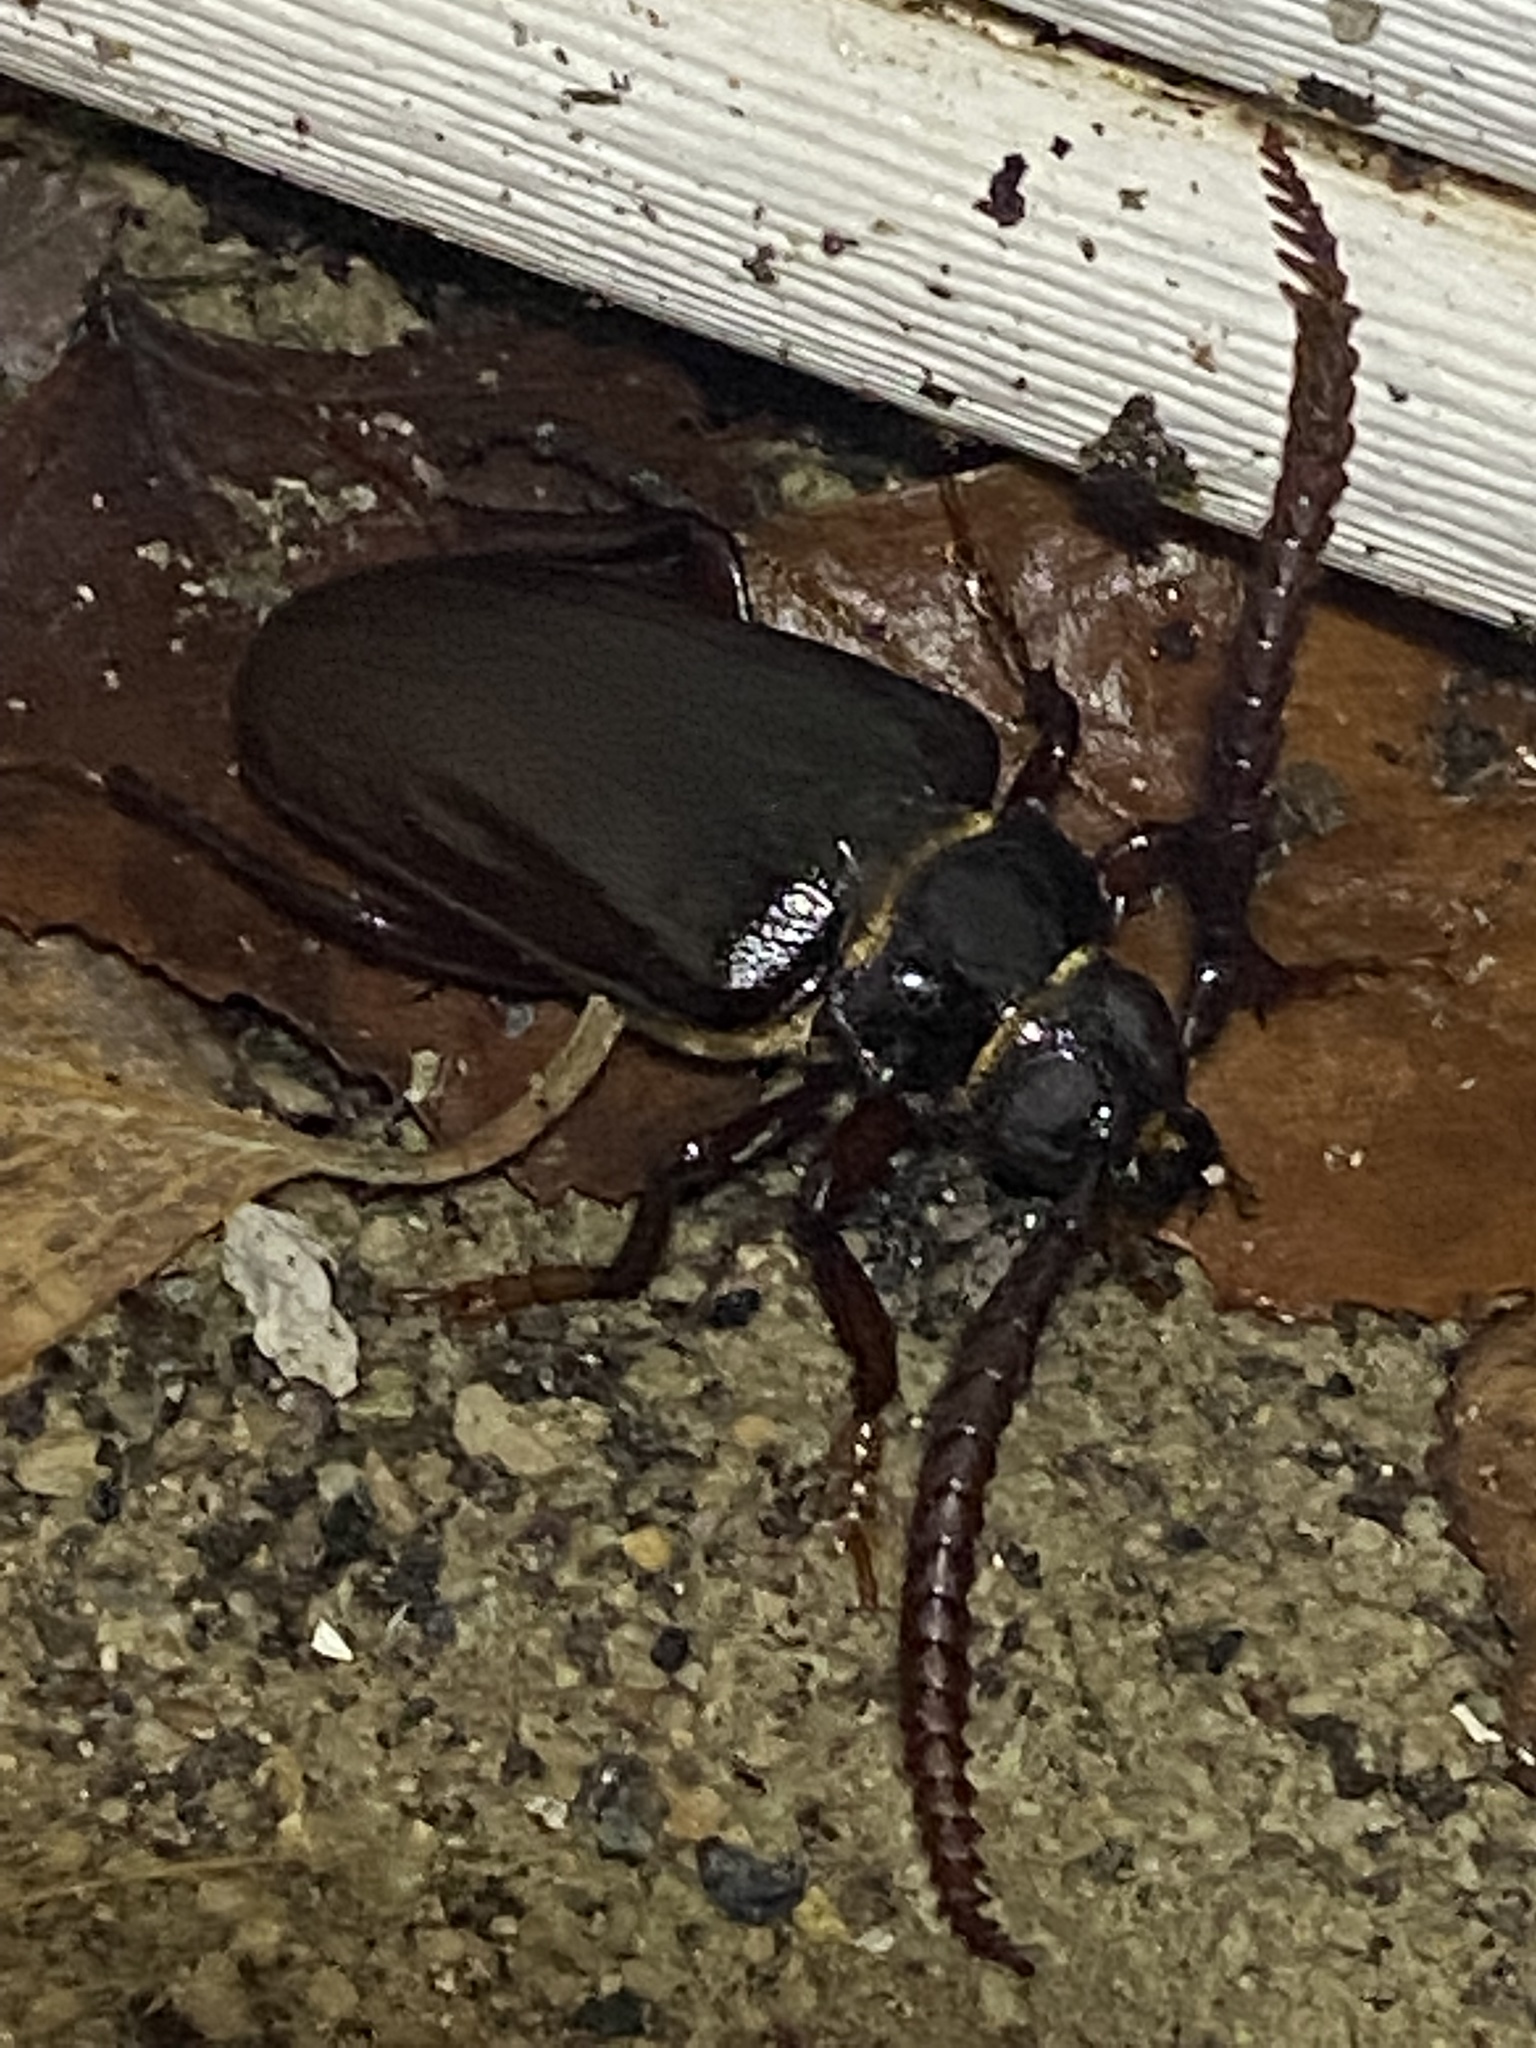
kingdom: Animalia
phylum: Arthropoda
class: Insecta
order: Coleoptera
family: Cerambycidae
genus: Prionus
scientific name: Prionus imbricornis
